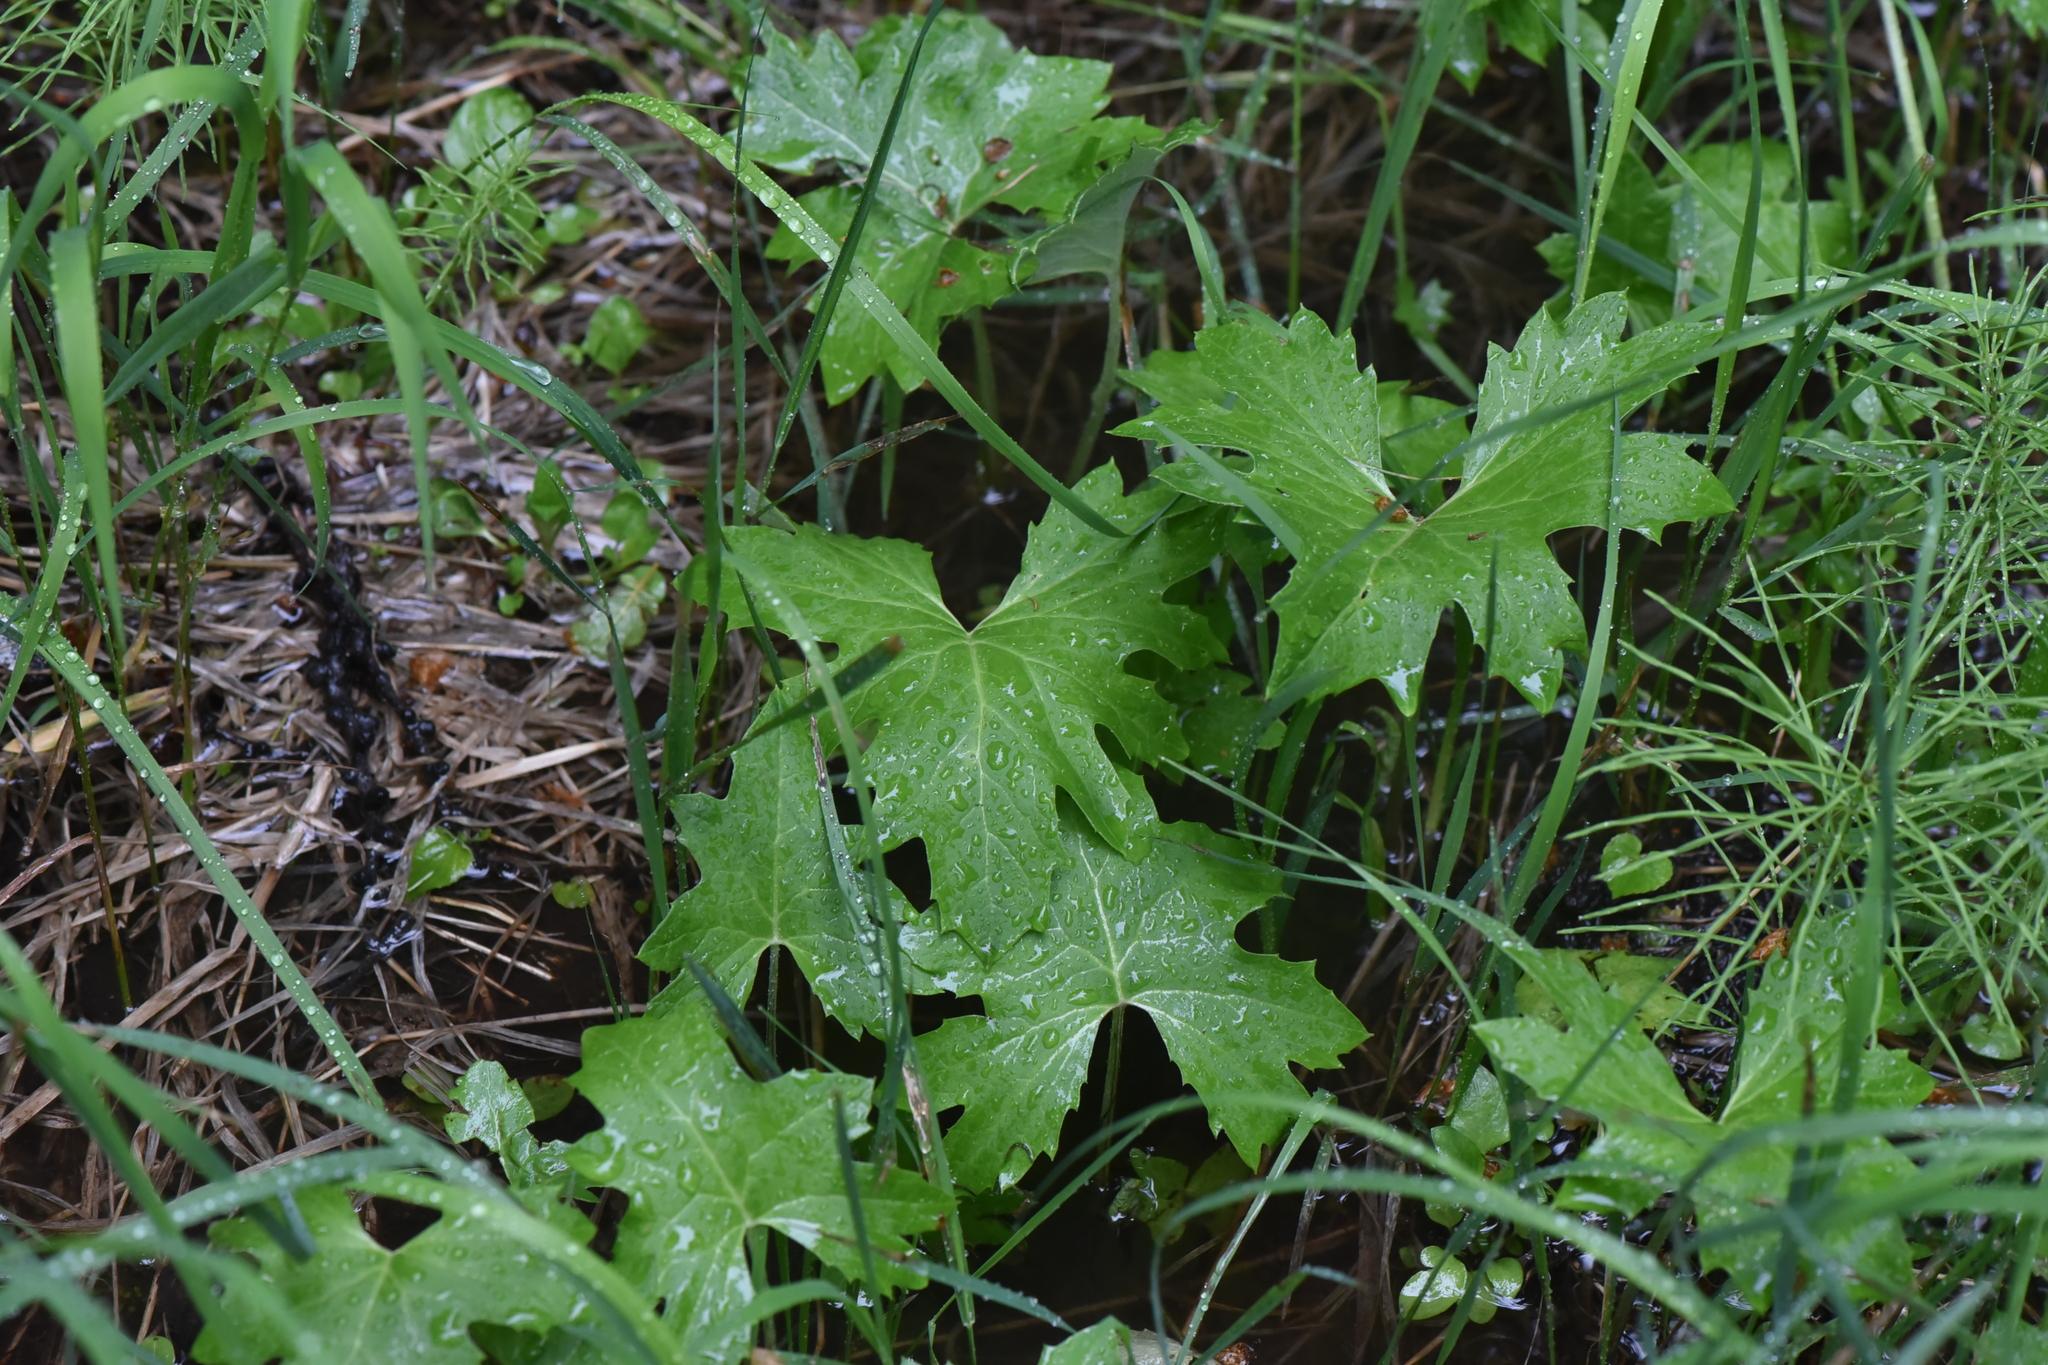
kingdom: Plantae
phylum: Tracheophyta
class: Magnoliopsida
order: Asterales
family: Asteraceae
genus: Petasites
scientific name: Petasites frigidus
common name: Arctic butterbur
